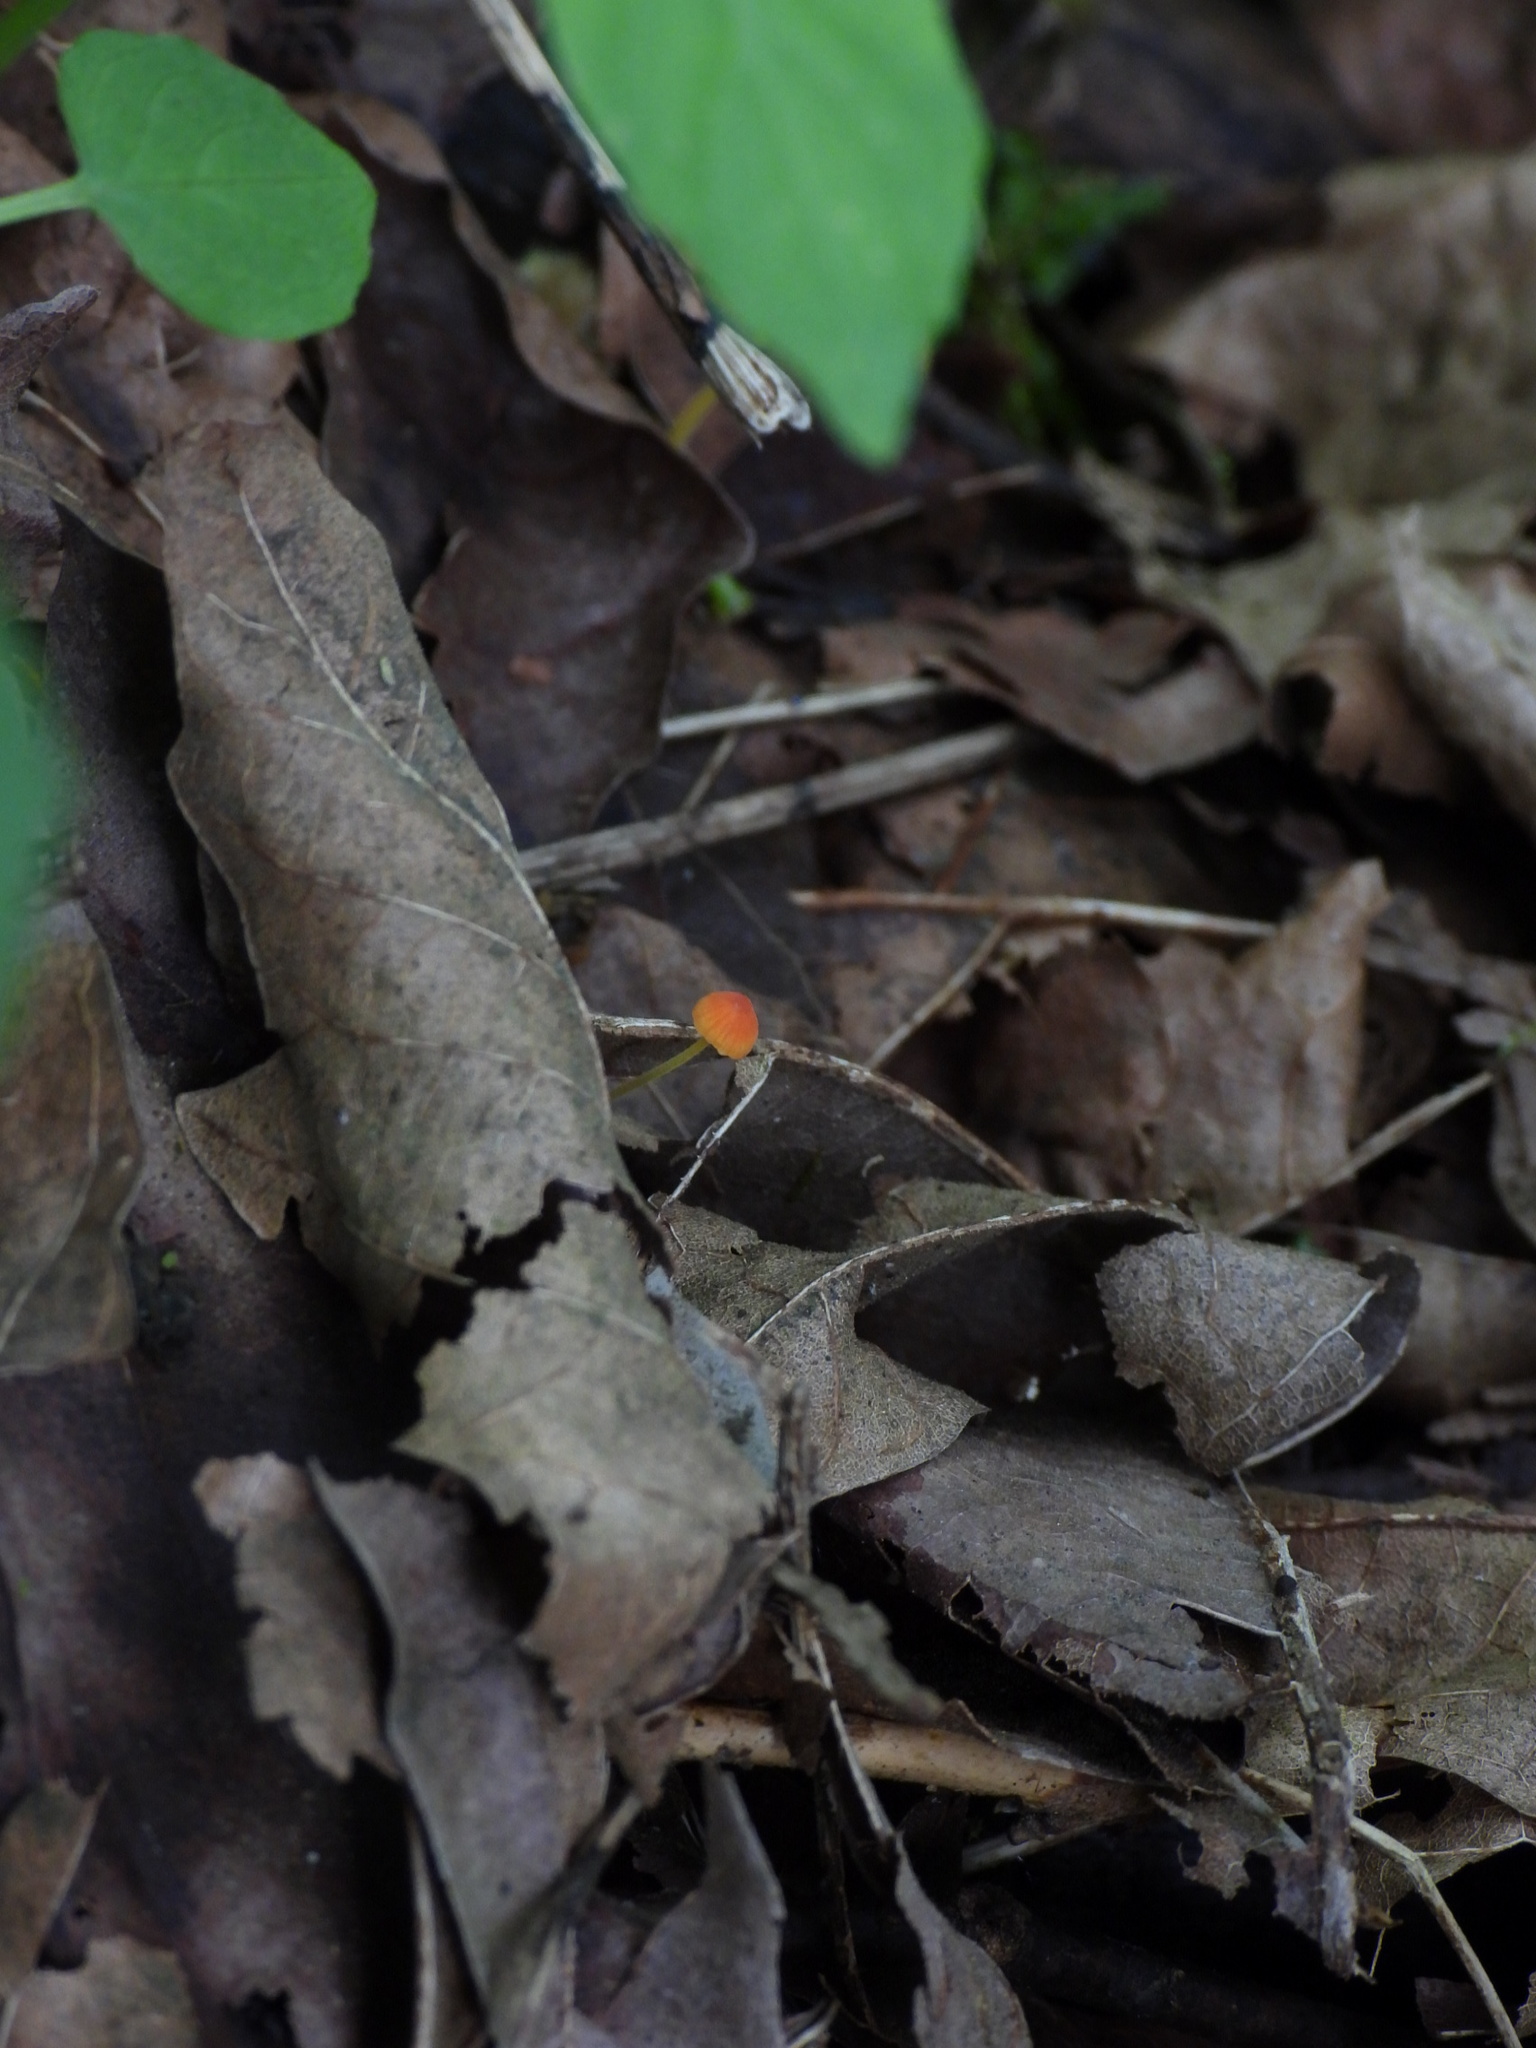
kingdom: Fungi
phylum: Basidiomycota
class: Agaricomycetes
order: Agaricales
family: Mycenaceae
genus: Mycena
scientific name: Mycena acicula
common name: Orange bonnet
